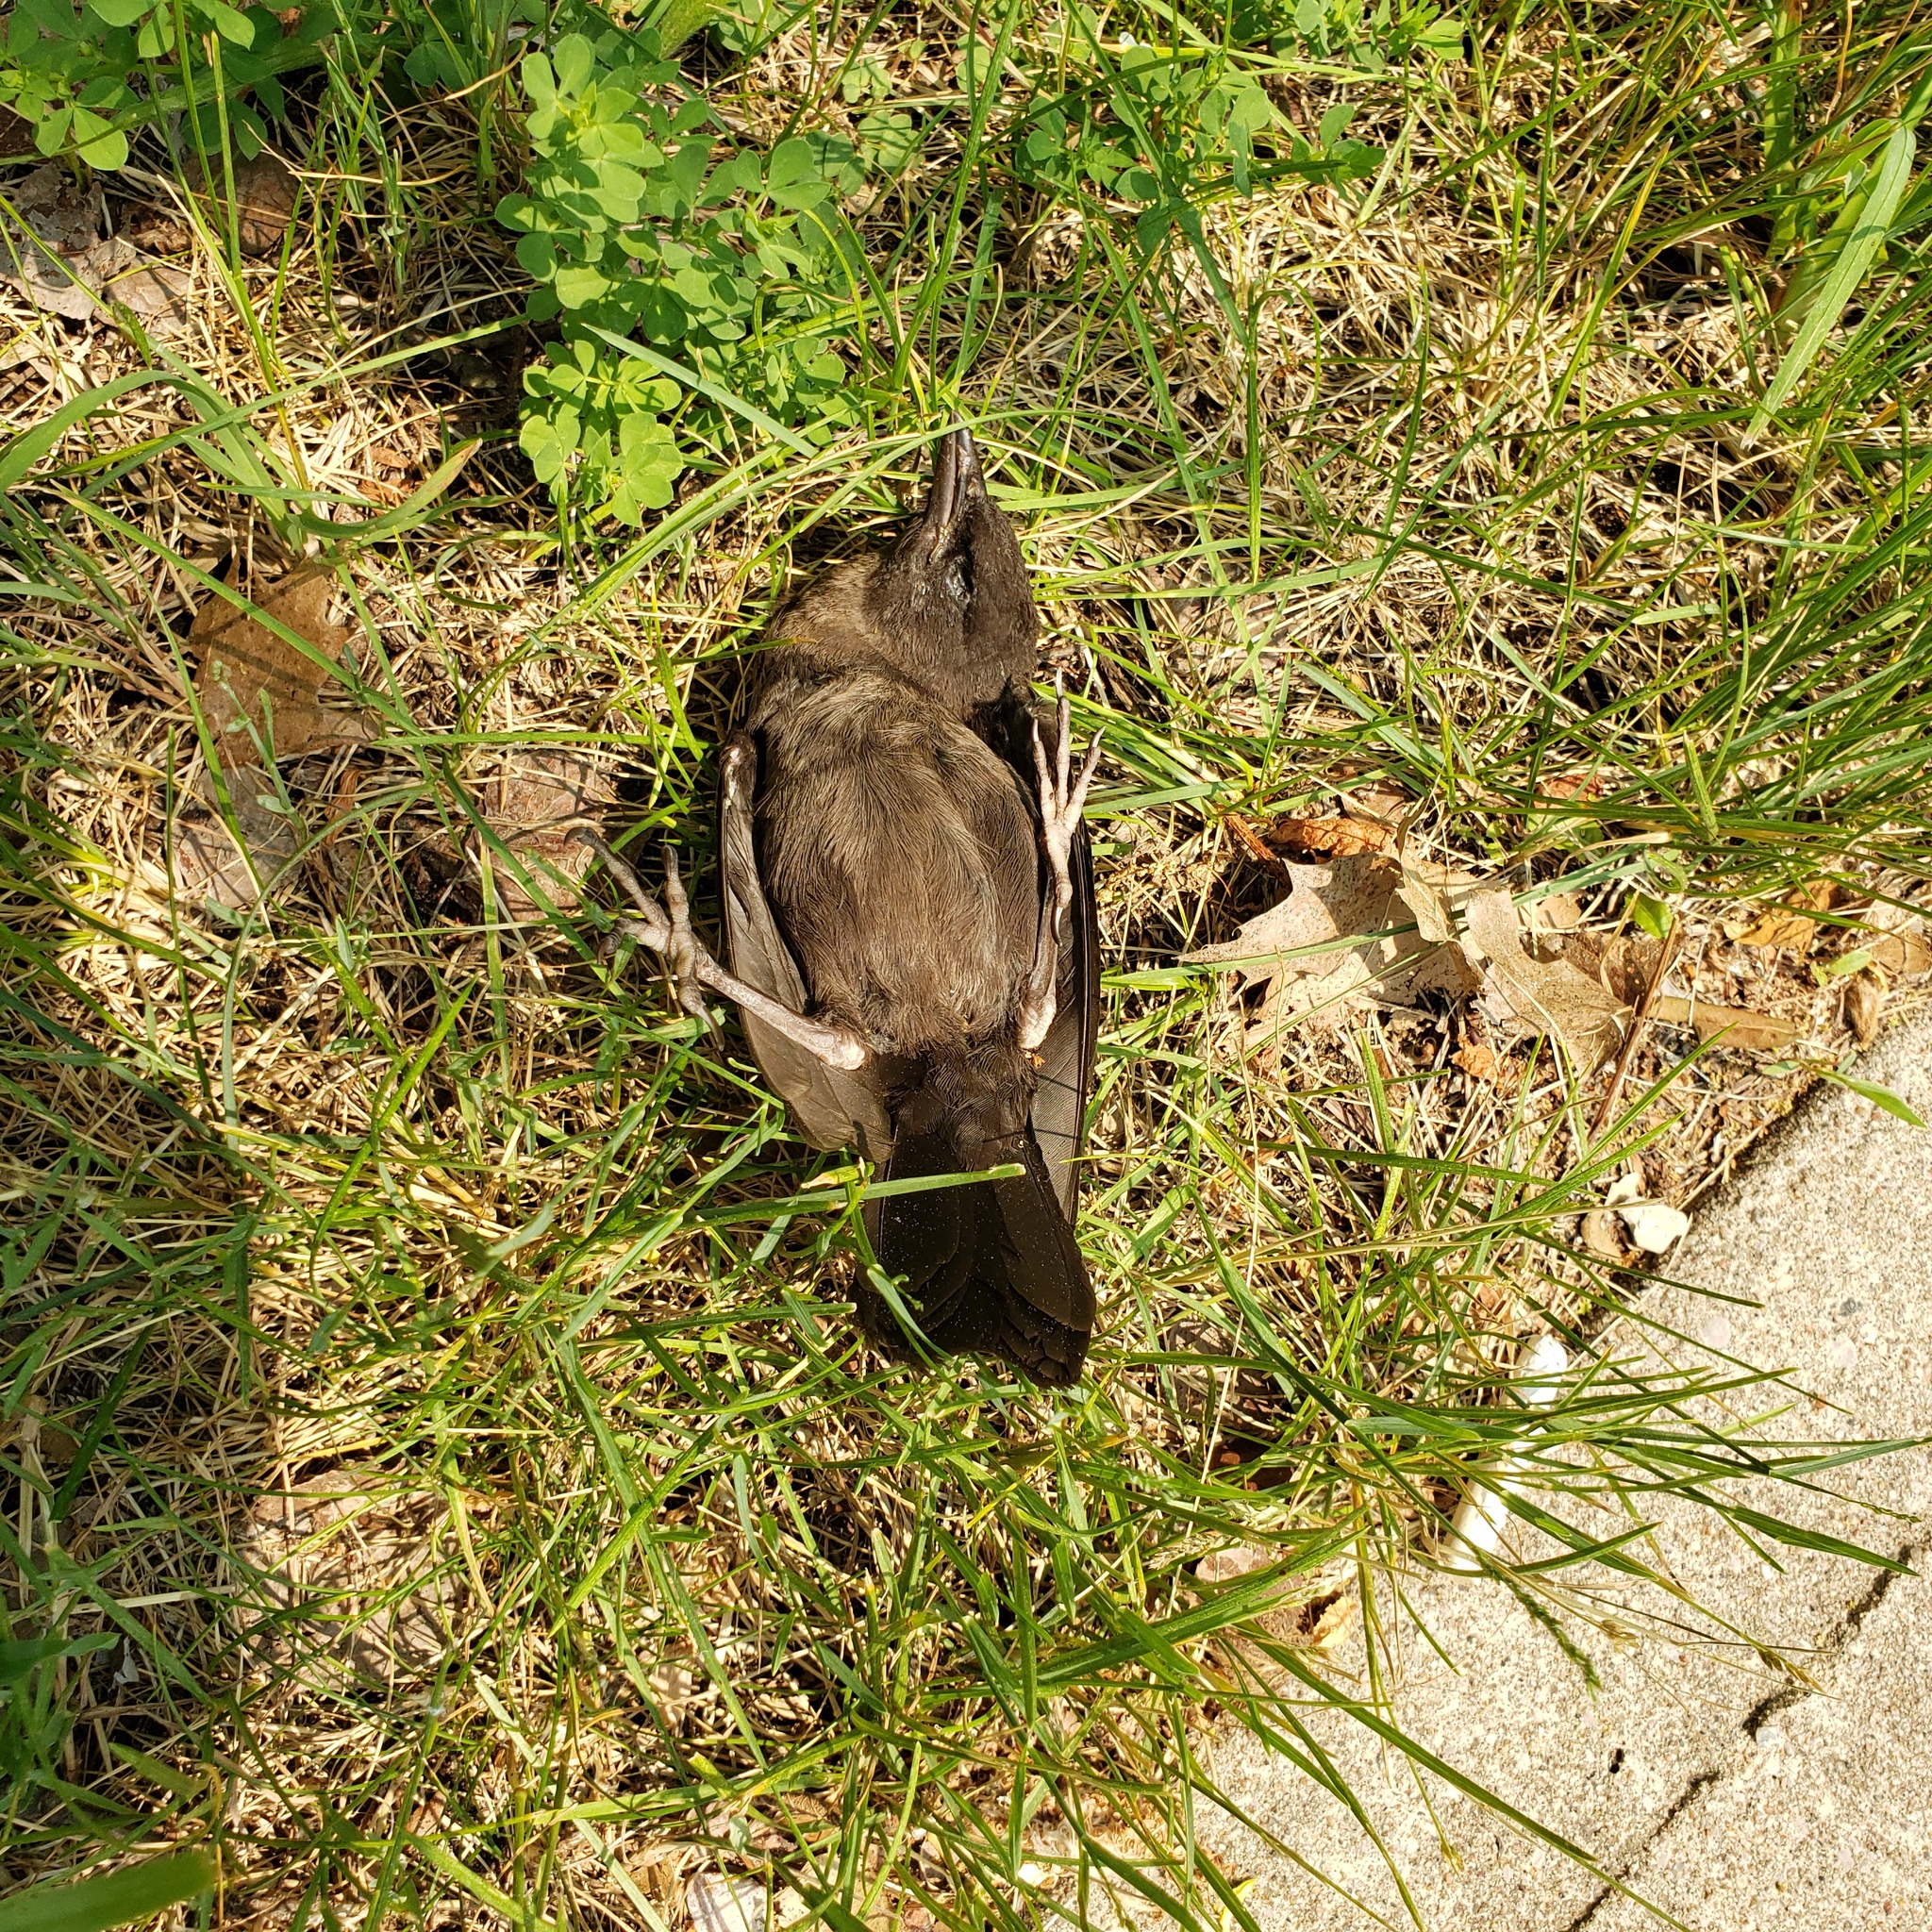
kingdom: Animalia
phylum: Chordata
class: Aves
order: Passeriformes
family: Icteridae
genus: Quiscalus
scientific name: Quiscalus quiscula
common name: Common grackle
